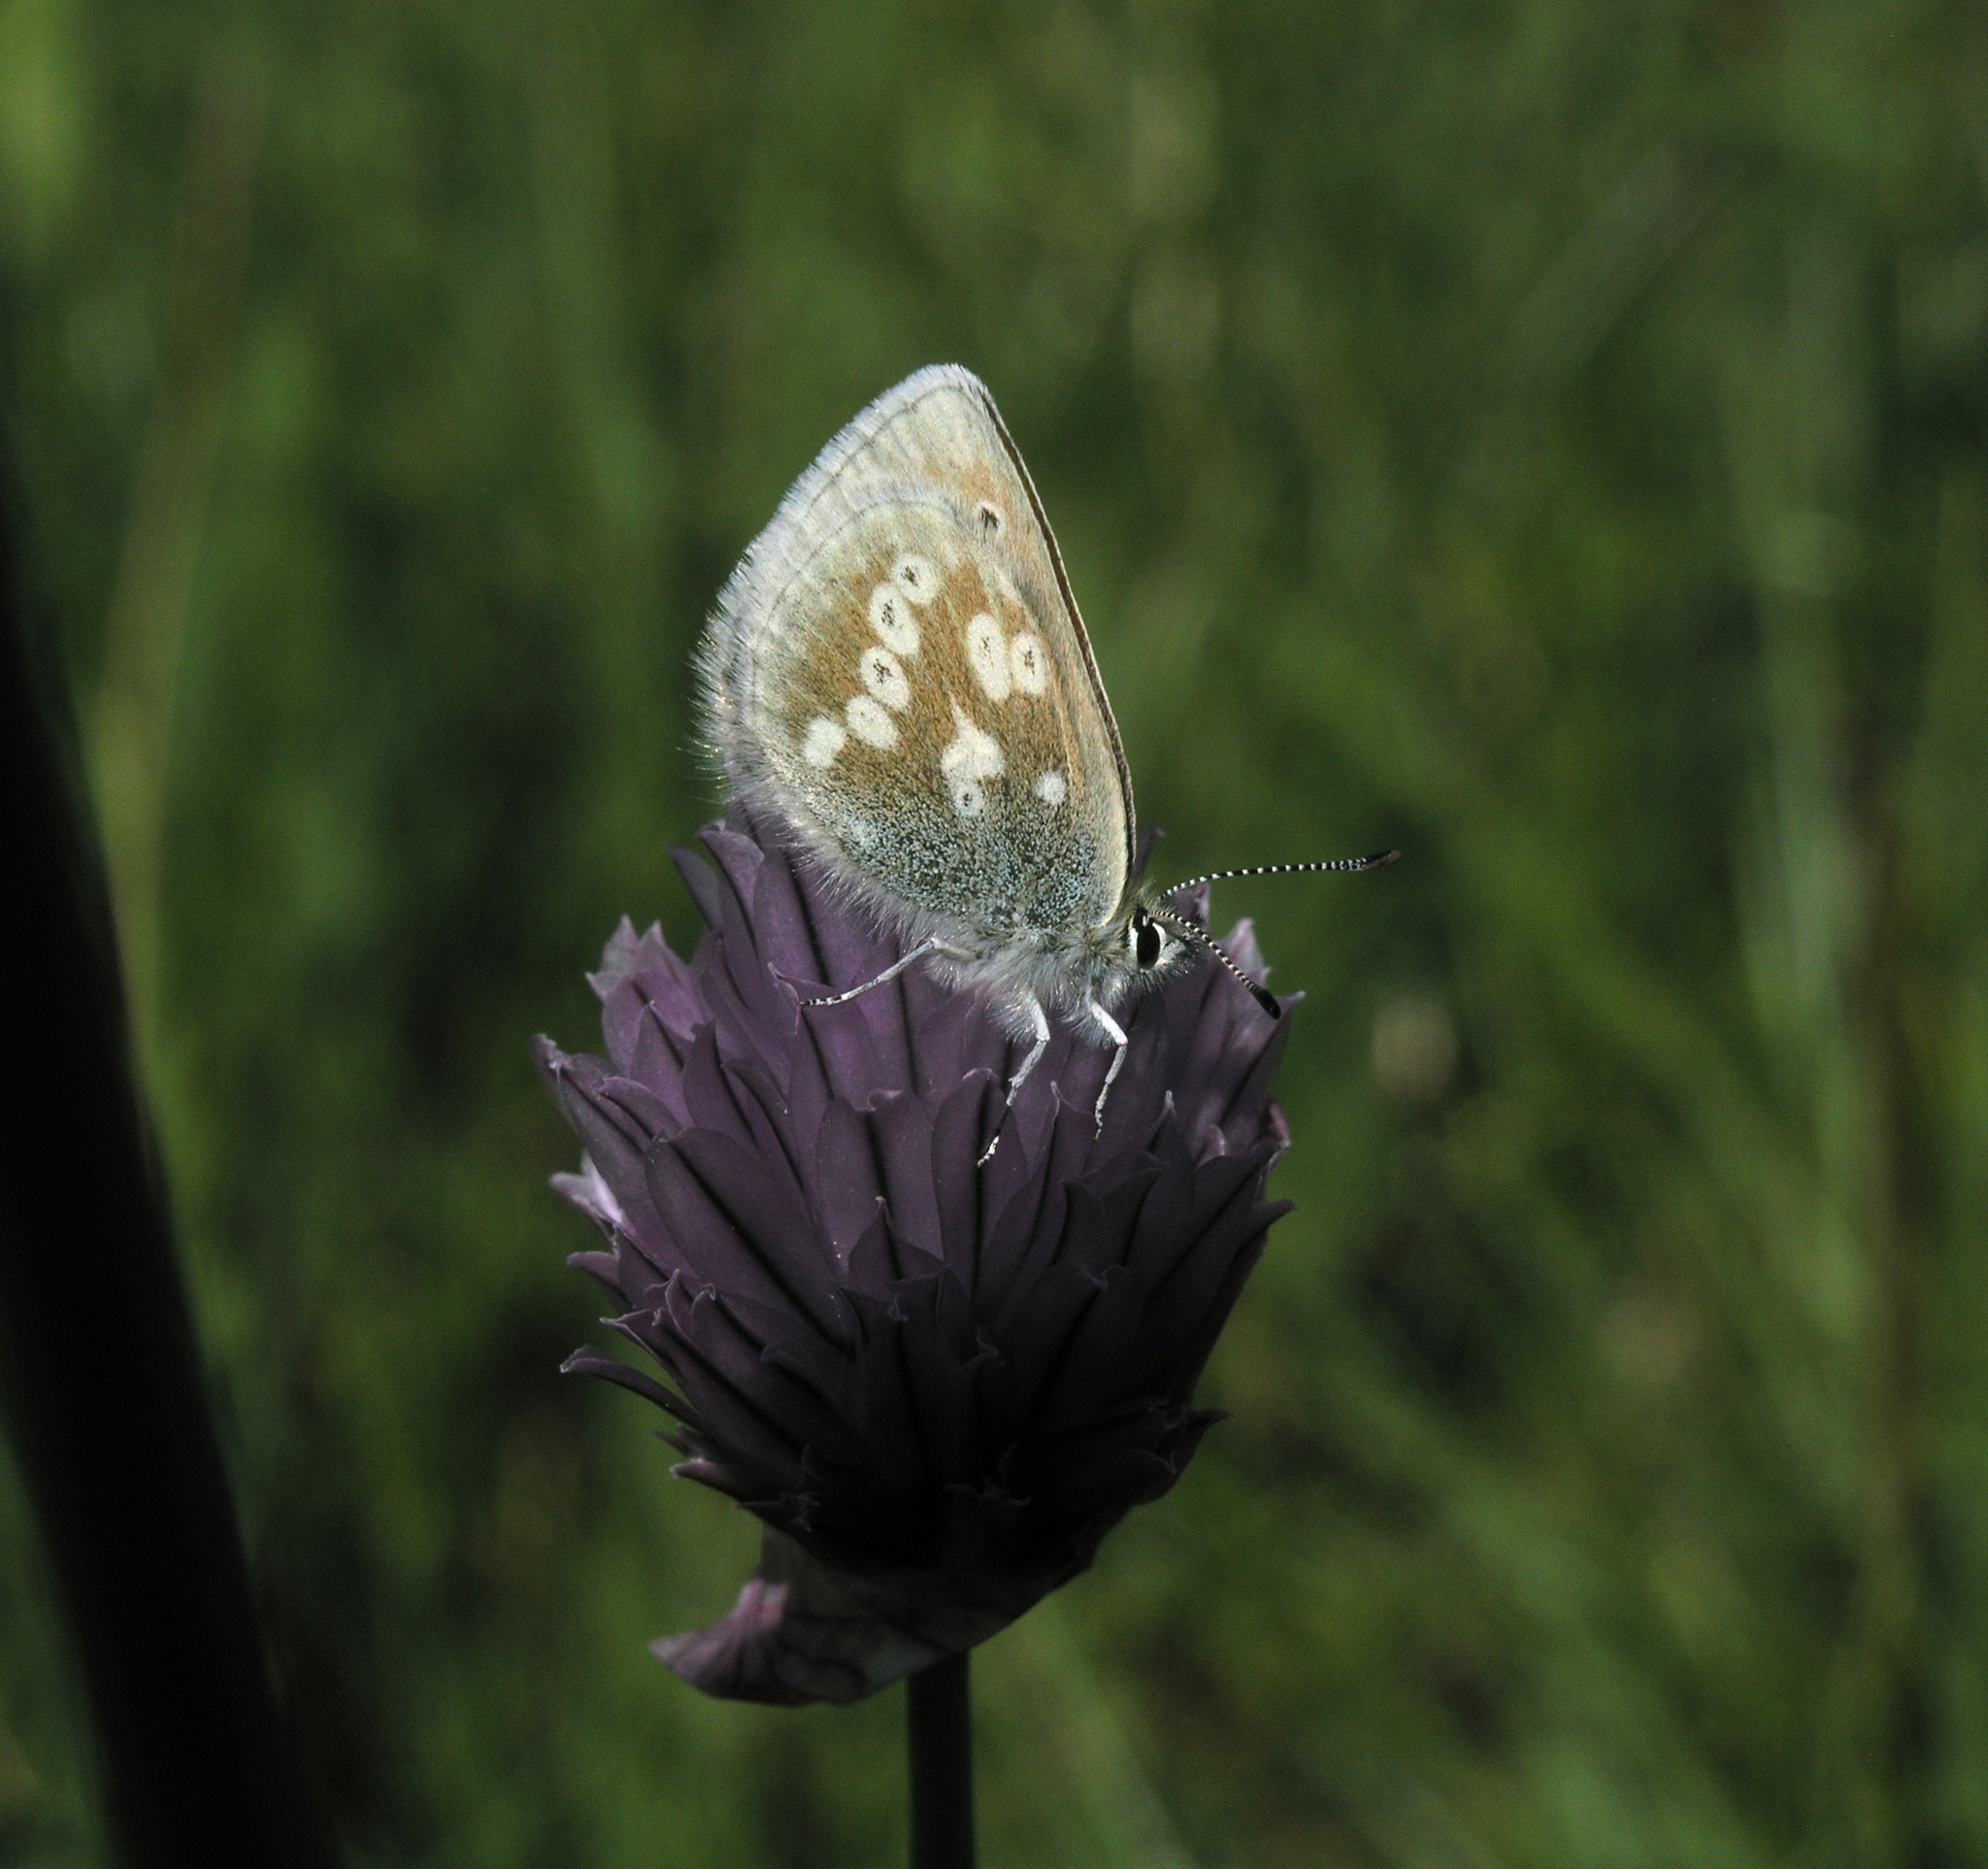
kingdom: Plantae
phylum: Tracheophyta
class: Liliopsida
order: Asparagales
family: Amaryllidaceae
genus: Allium
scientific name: Allium schoenoprasum
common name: Chives
